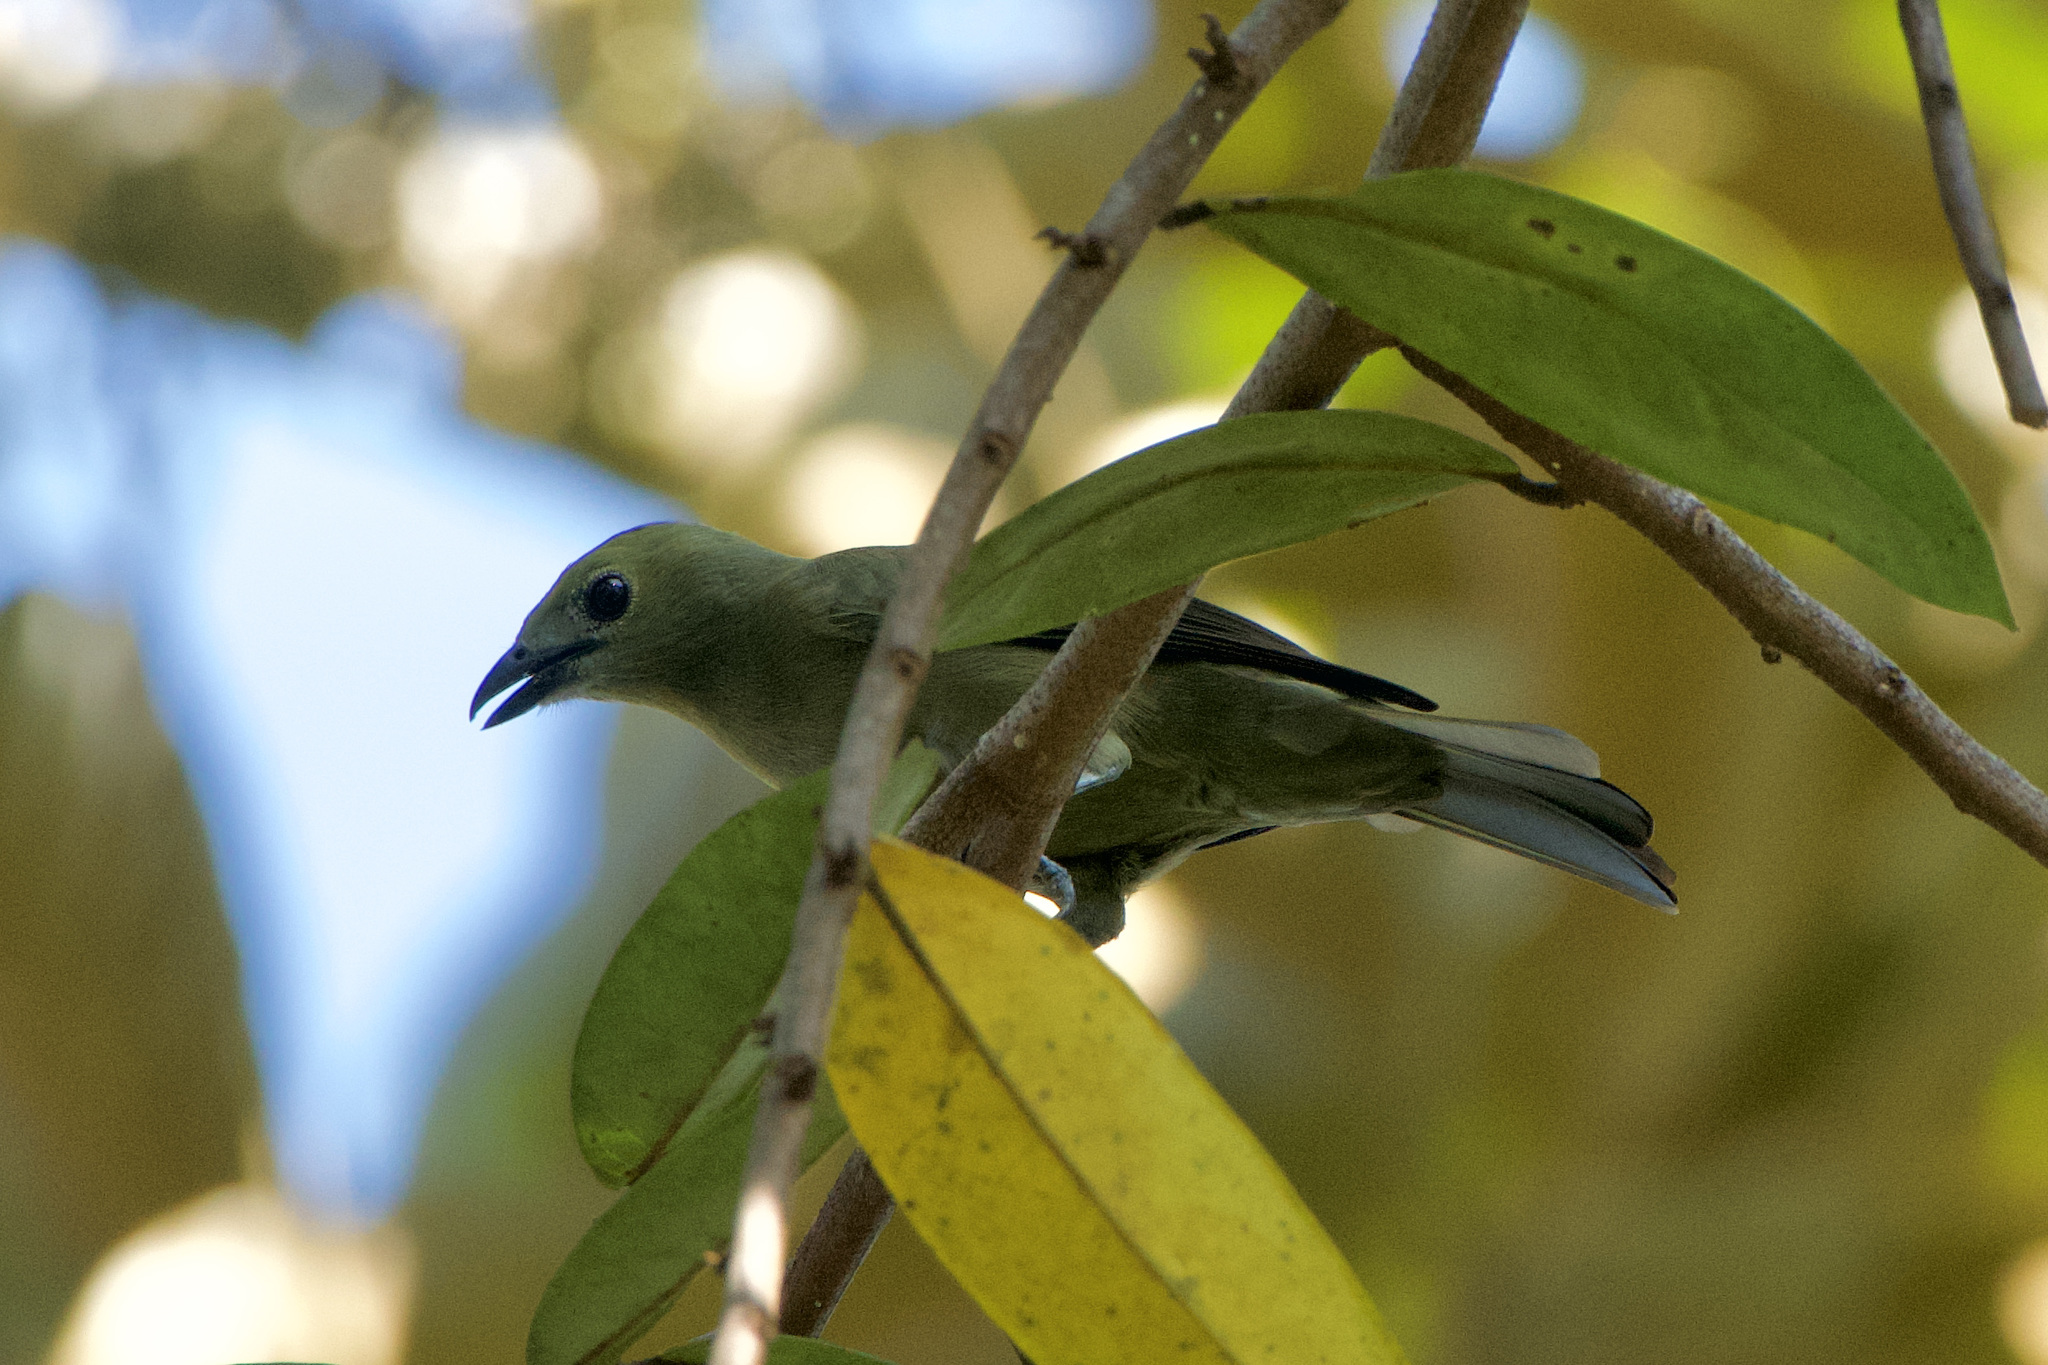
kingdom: Animalia
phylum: Chordata
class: Aves
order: Passeriformes
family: Thraupidae
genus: Thraupis
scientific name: Thraupis palmarum
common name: Palm tanager
